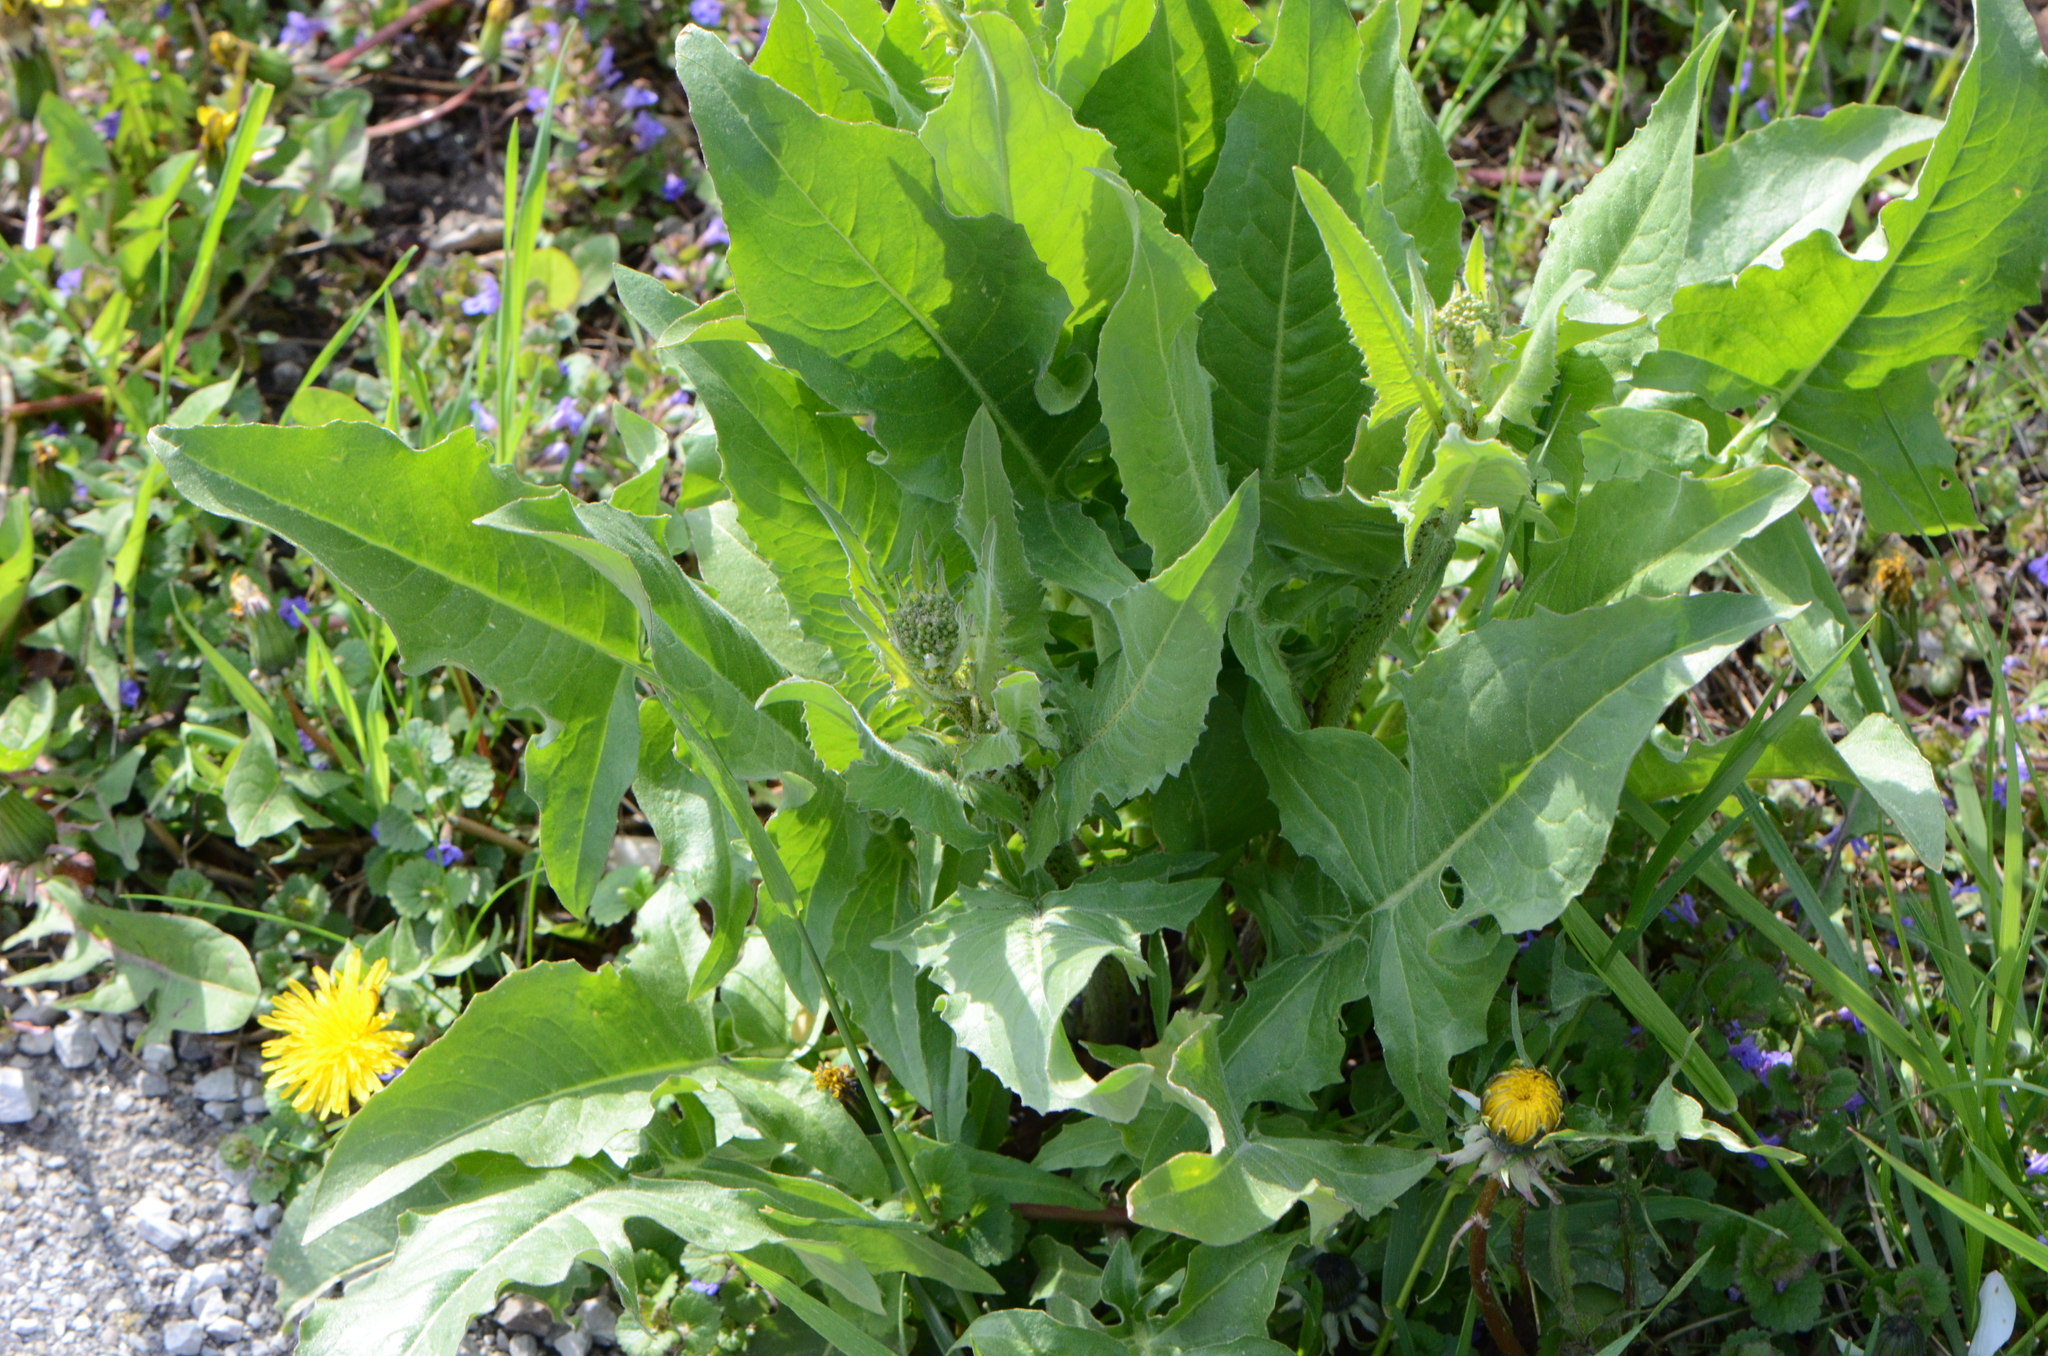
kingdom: Plantae
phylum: Tracheophyta
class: Magnoliopsida
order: Brassicales
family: Brassicaceae
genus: Bunias
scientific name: Bunias orientalis
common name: Warty-cabbage
